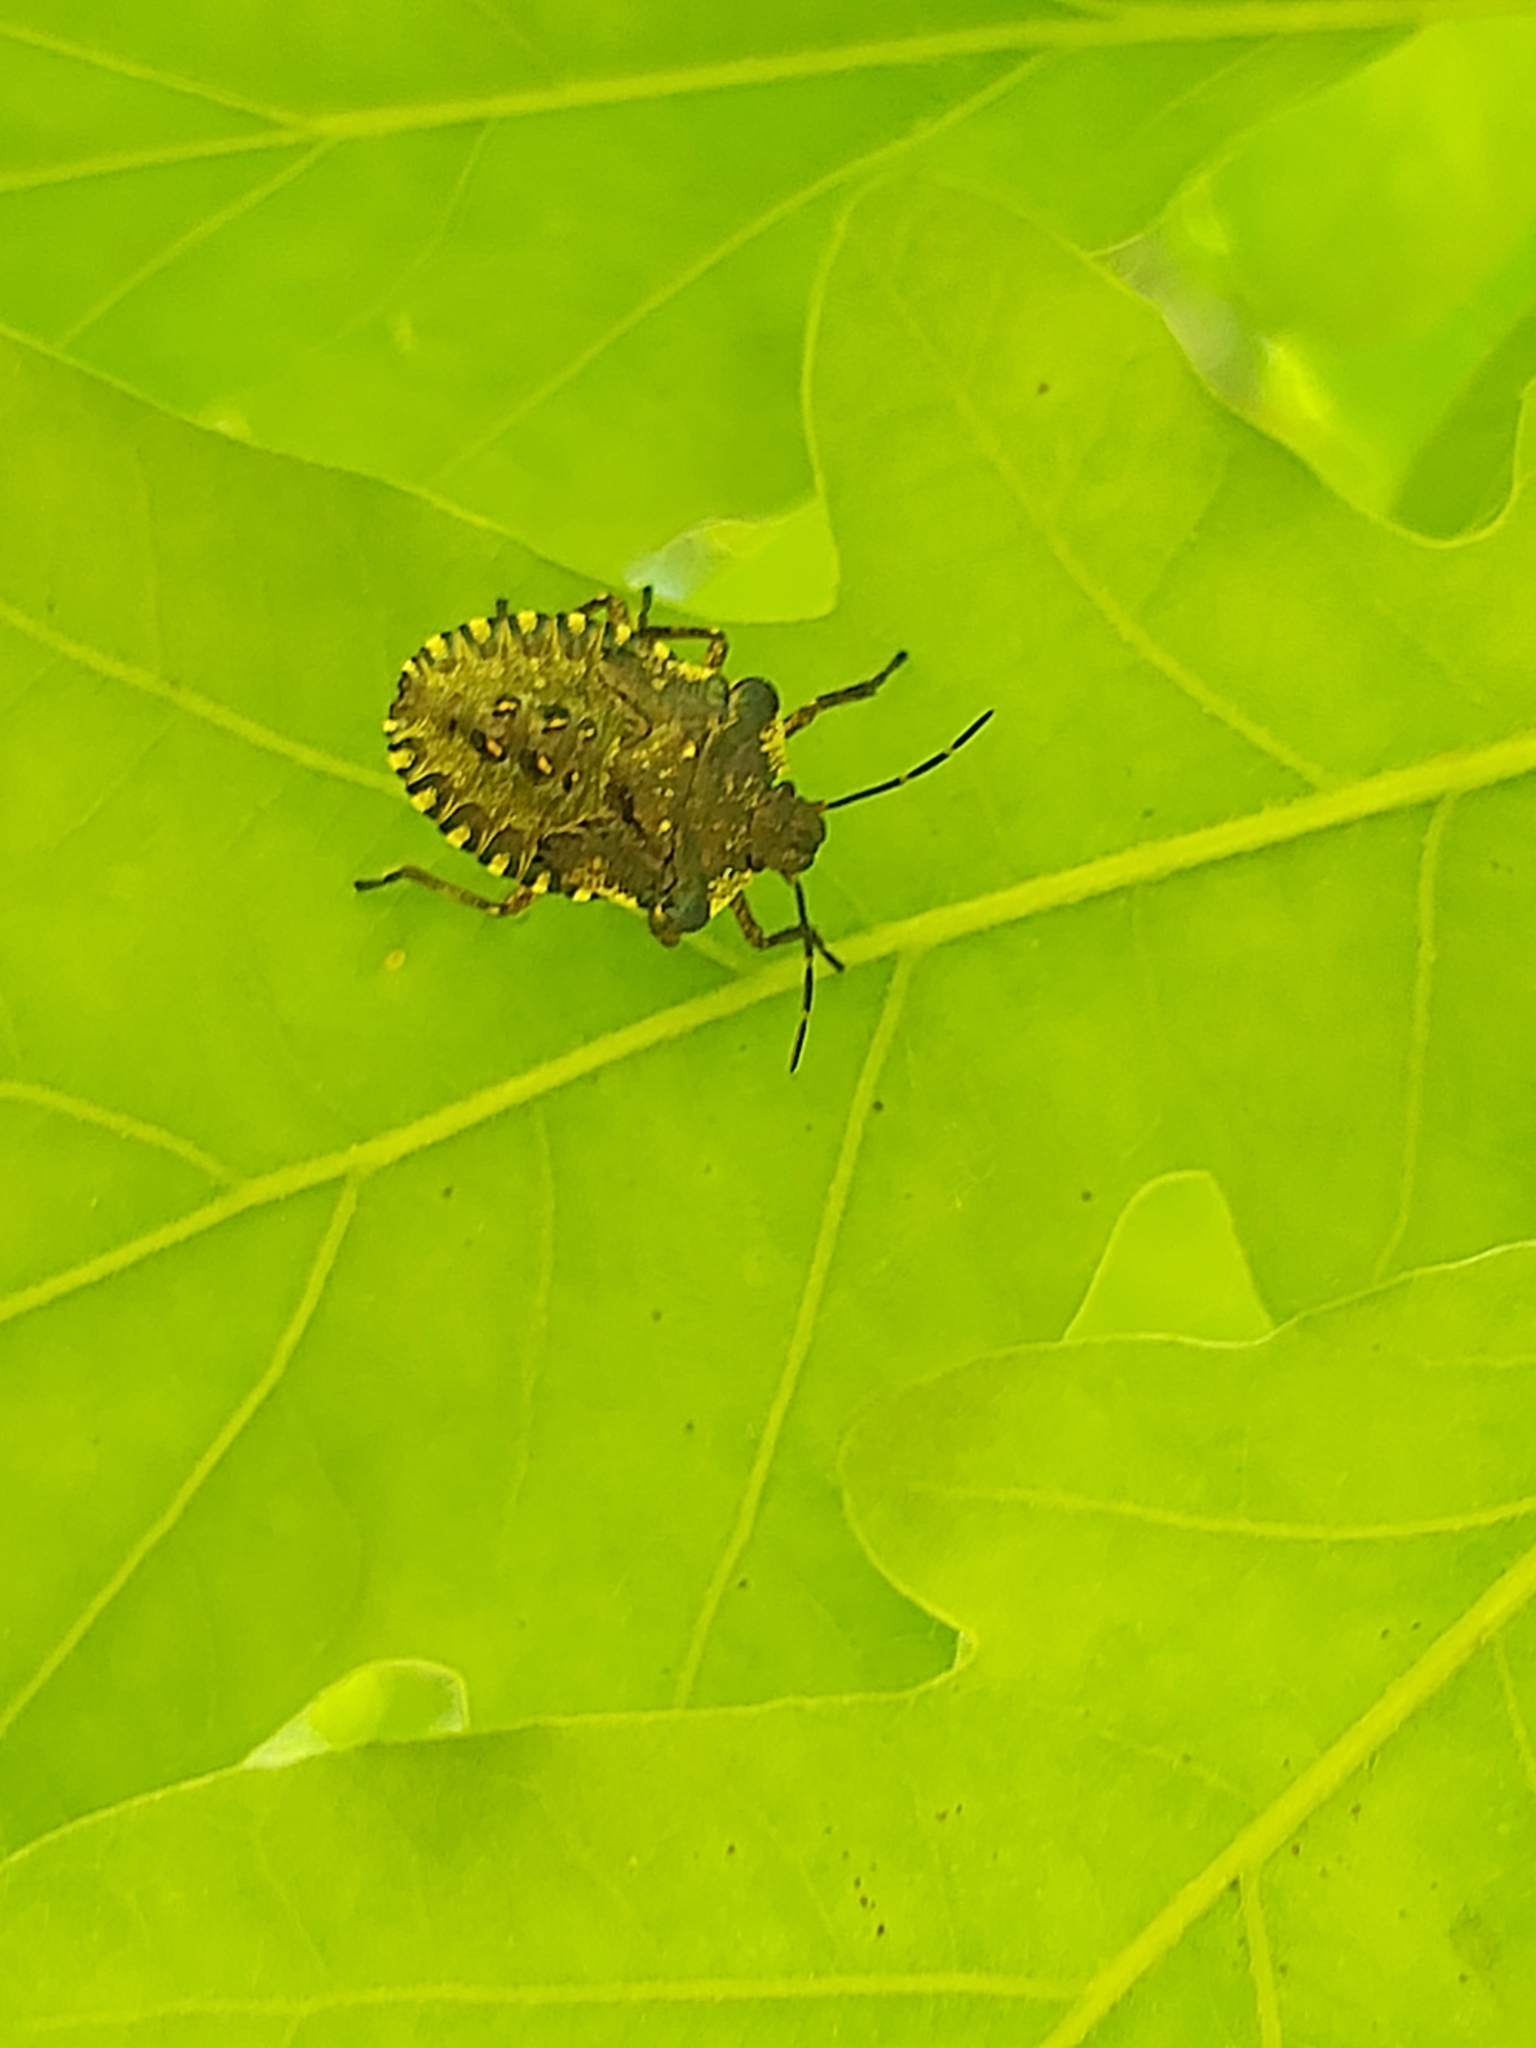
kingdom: Animalia
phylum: Arthropoda
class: Insecta
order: Hemiptera
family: Pentatomidae
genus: Pentatoma
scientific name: Pentatoma rufipes
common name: Forest bug
